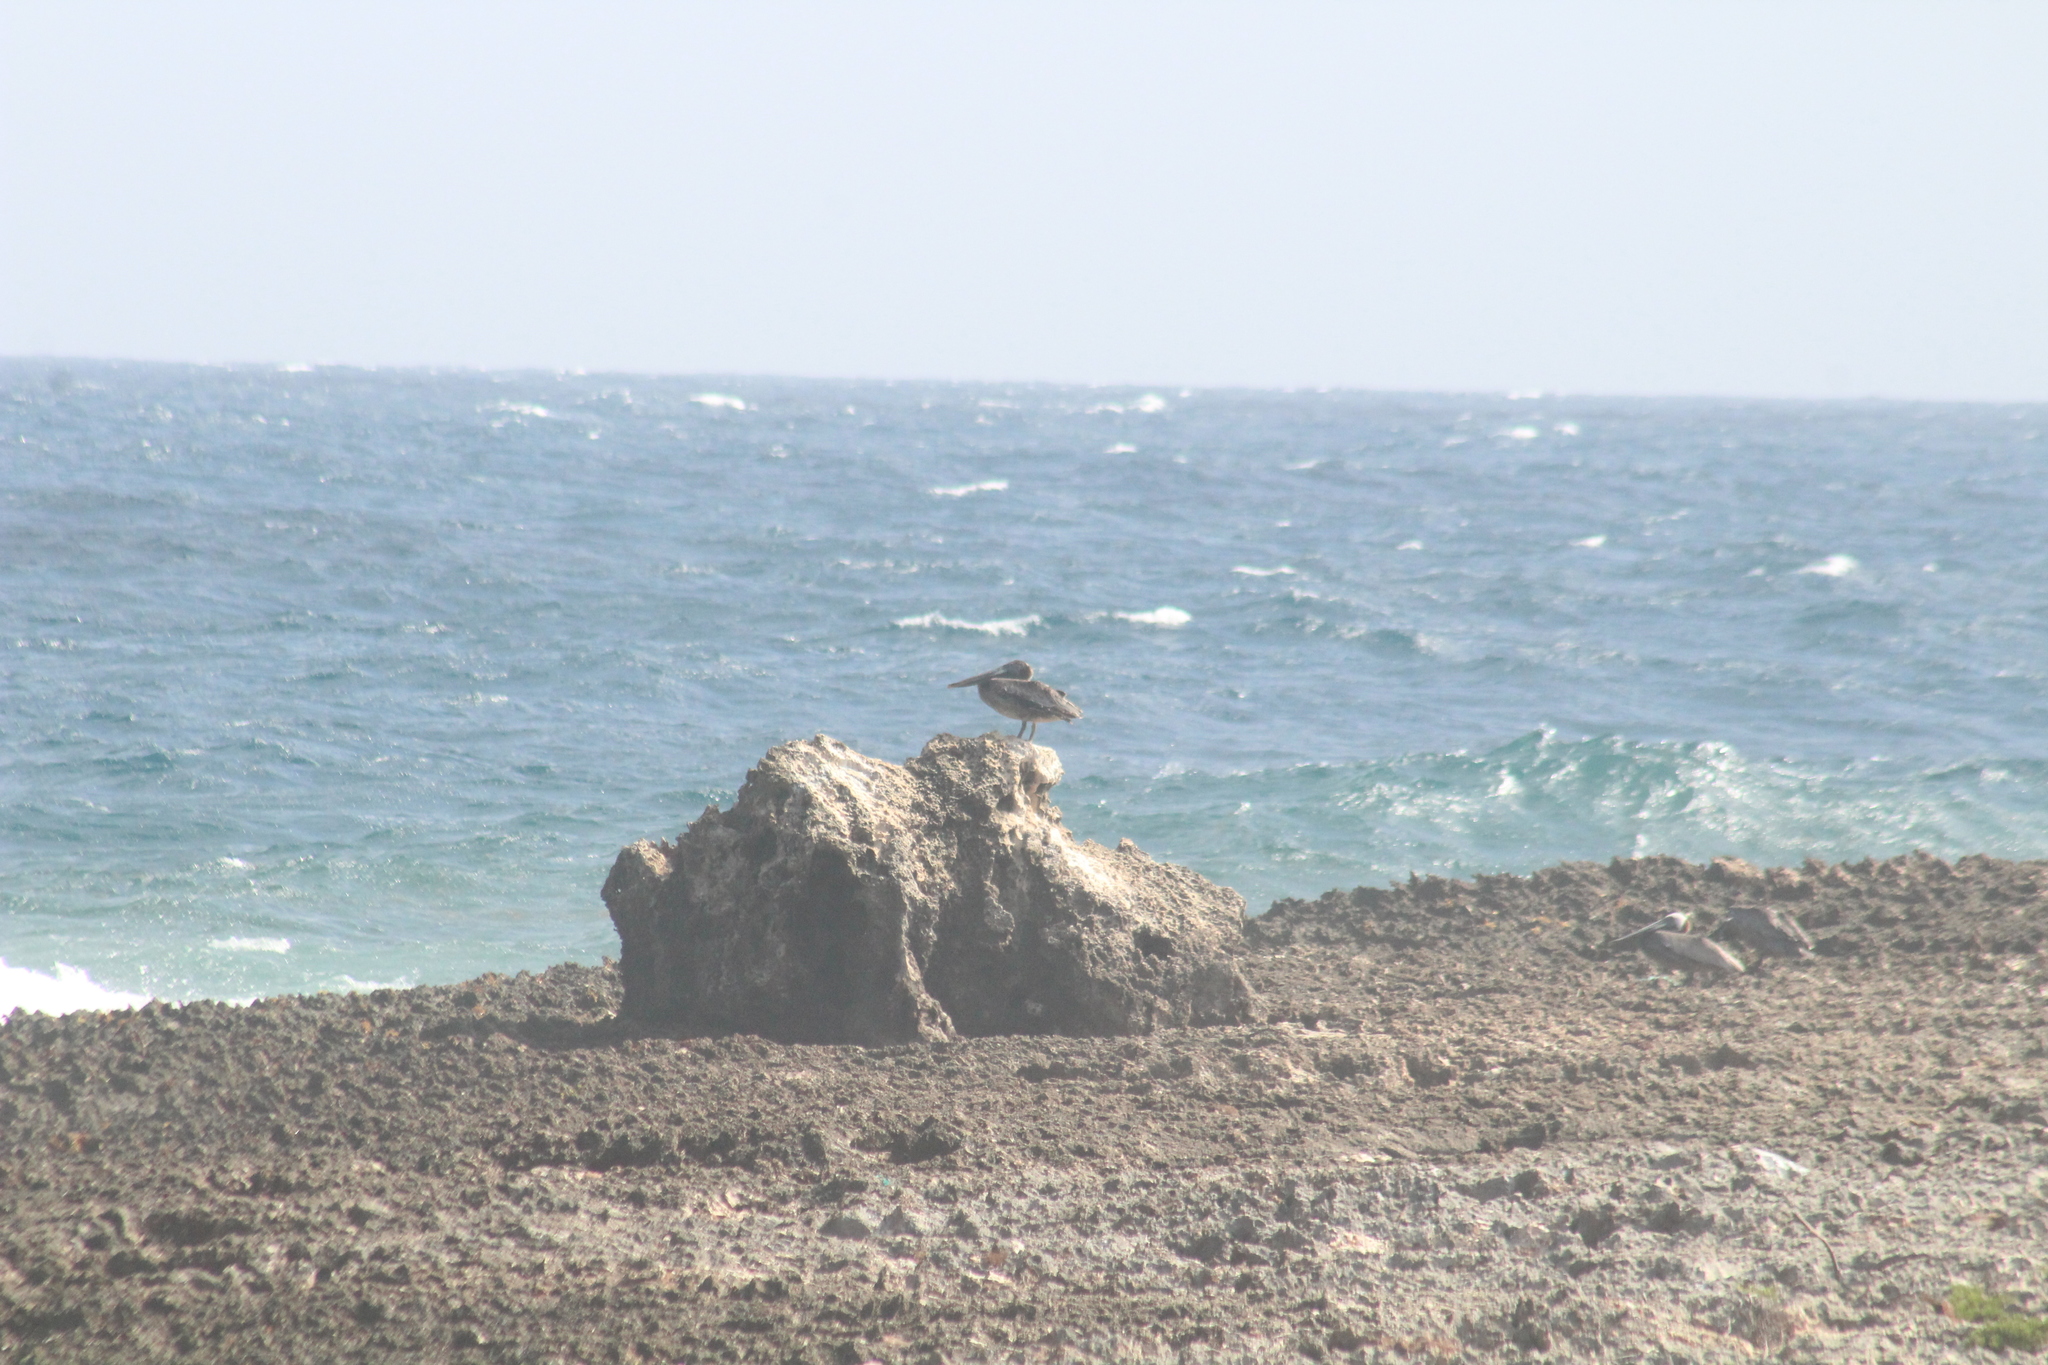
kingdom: Animalia
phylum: Chordata
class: Aves
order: Pelecaniformes
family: Pelecanidae
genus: Pelecanus
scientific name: Pelecanus occidentalis
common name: Brown pelican
